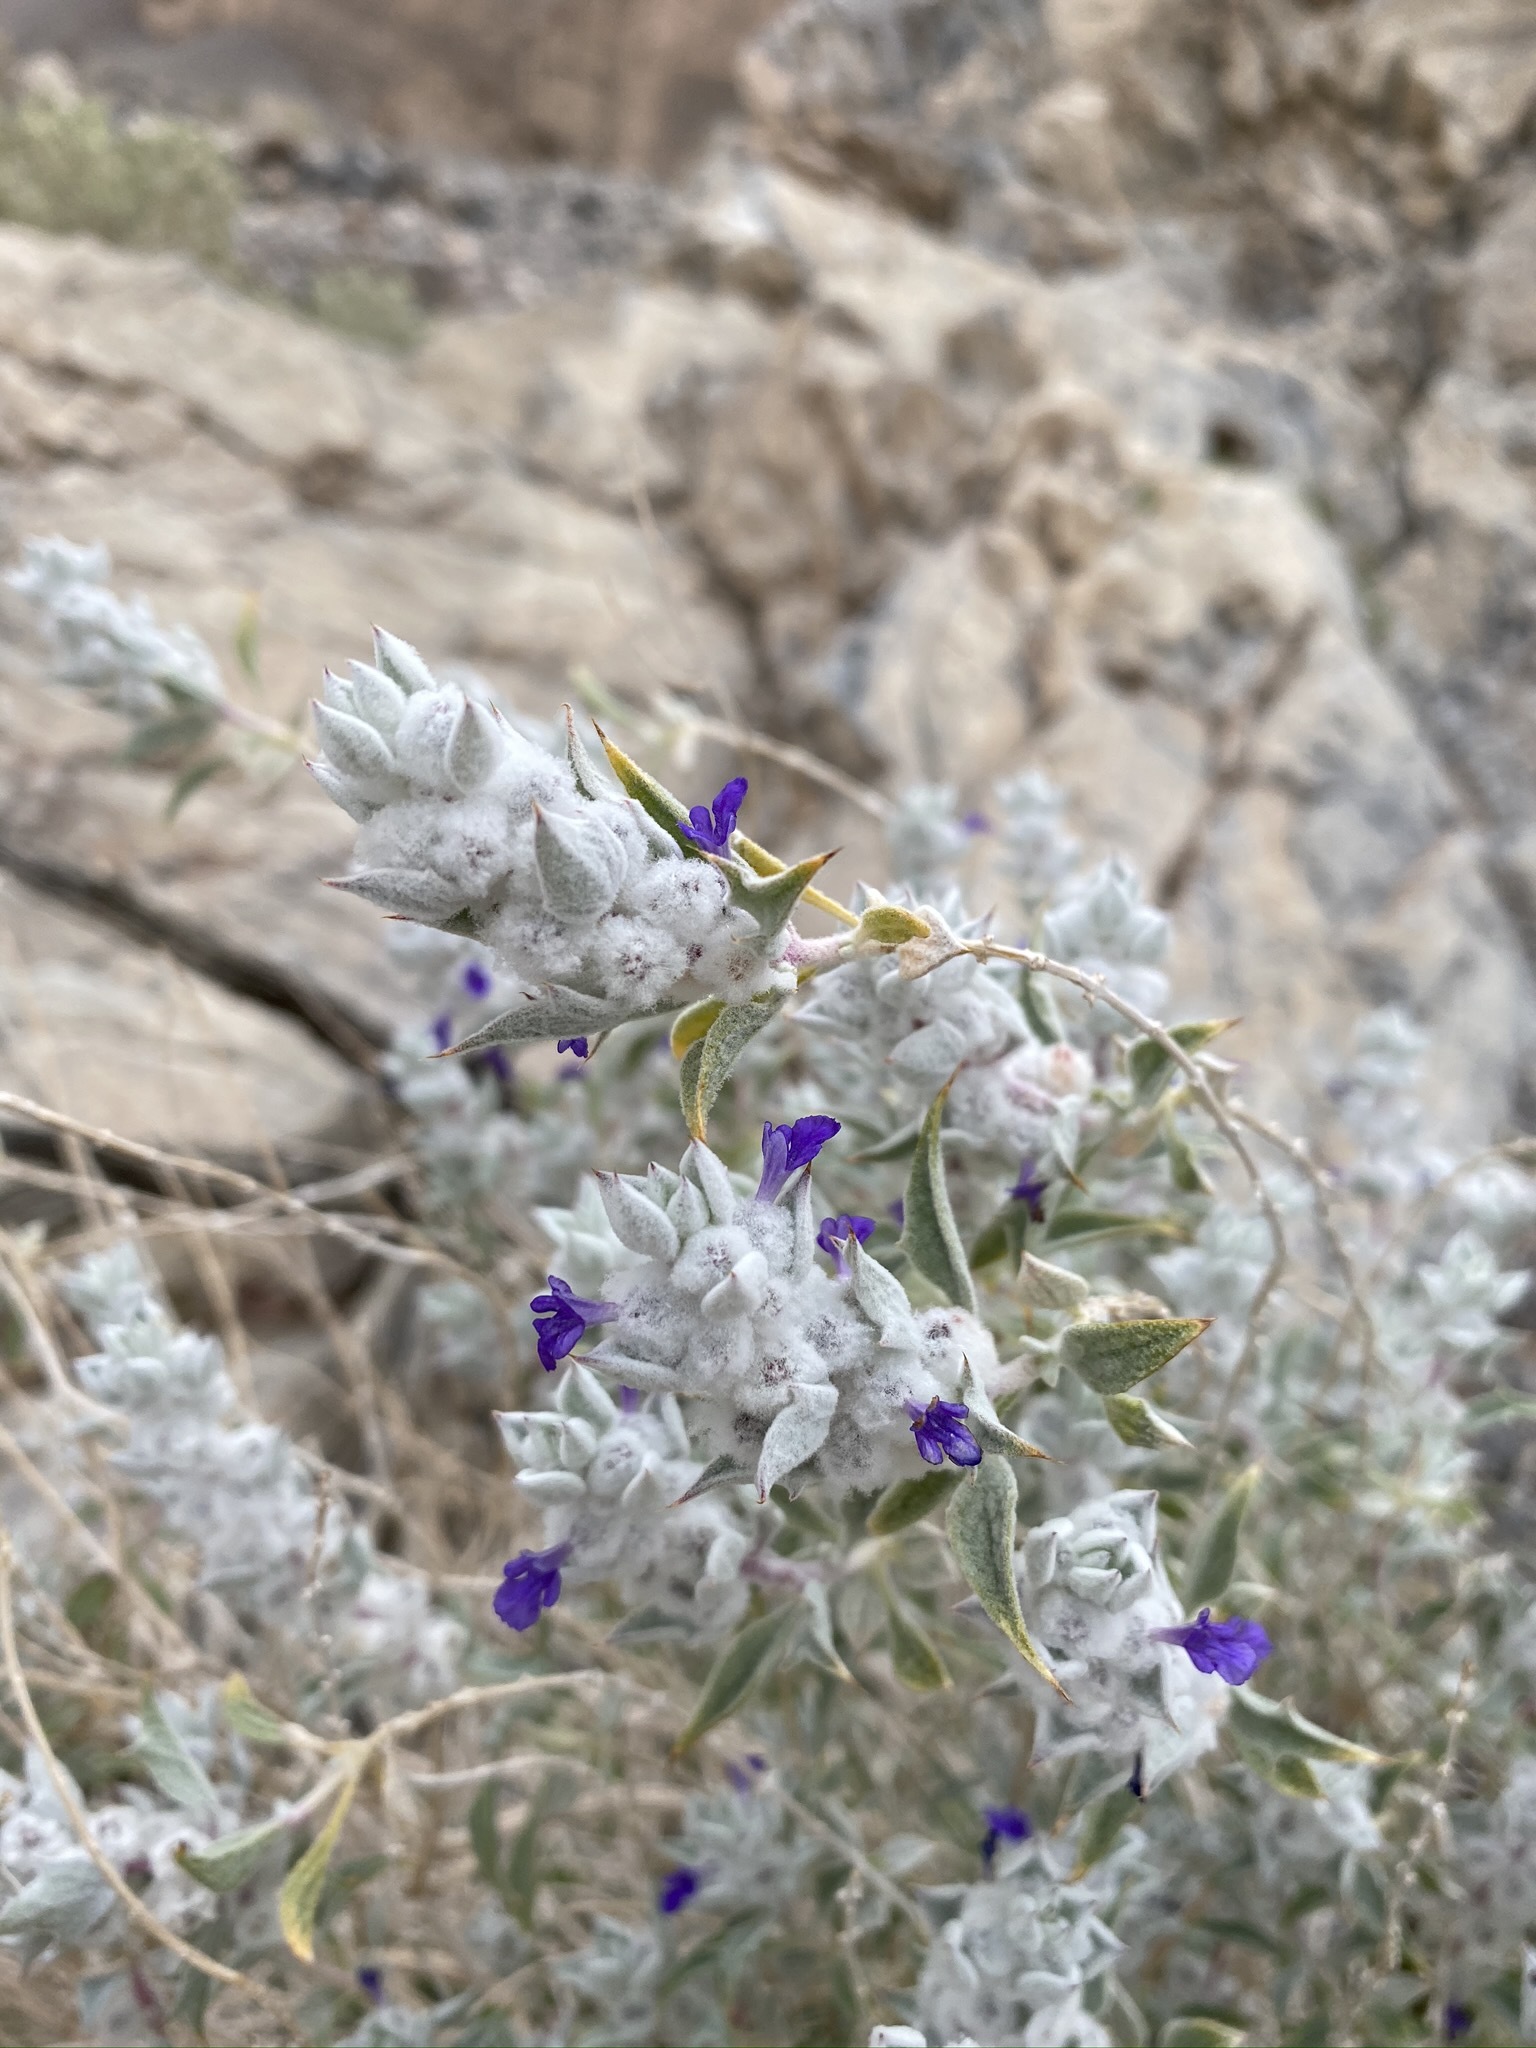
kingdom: Plantae
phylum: Tracheophyta
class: Magnoliopsida
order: Lamiales
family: Lamiaceae
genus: Salvia
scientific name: Salvia funerea
